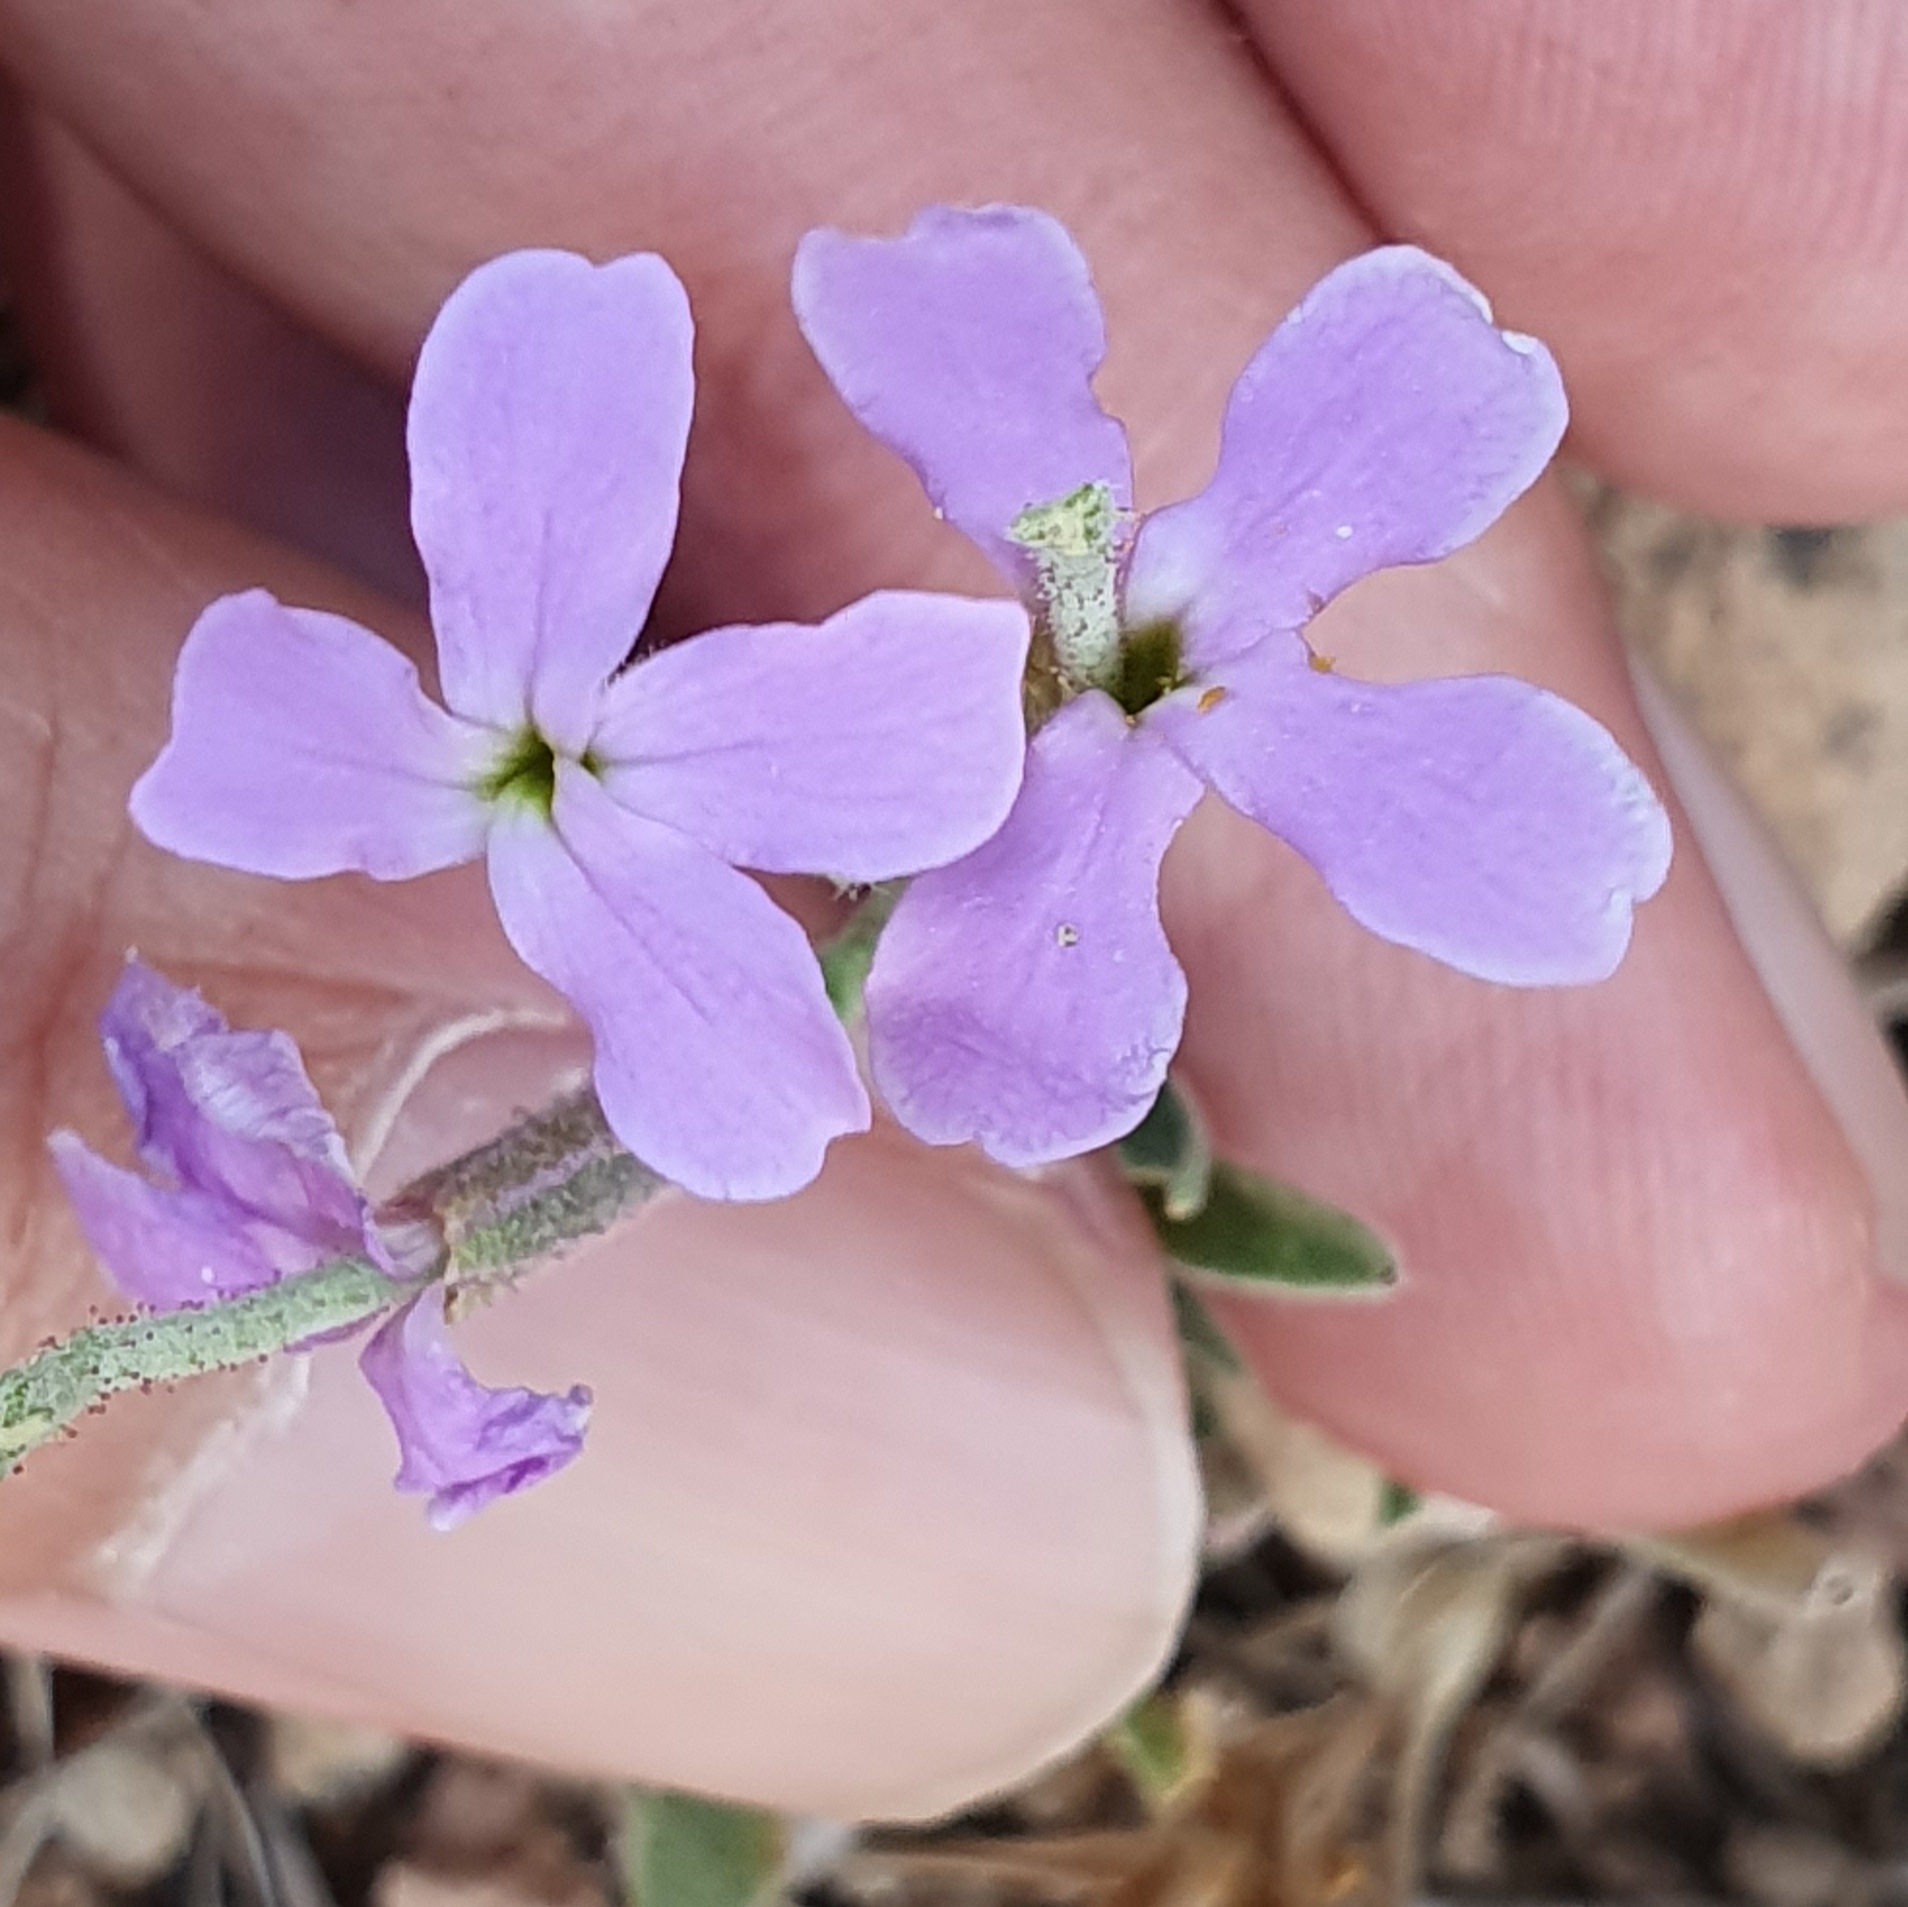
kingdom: Plantae
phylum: Tracheophyta
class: Magnoliopsida
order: Brassicales
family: Brassicaceae
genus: Matthiola
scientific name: Matthiola lunata
